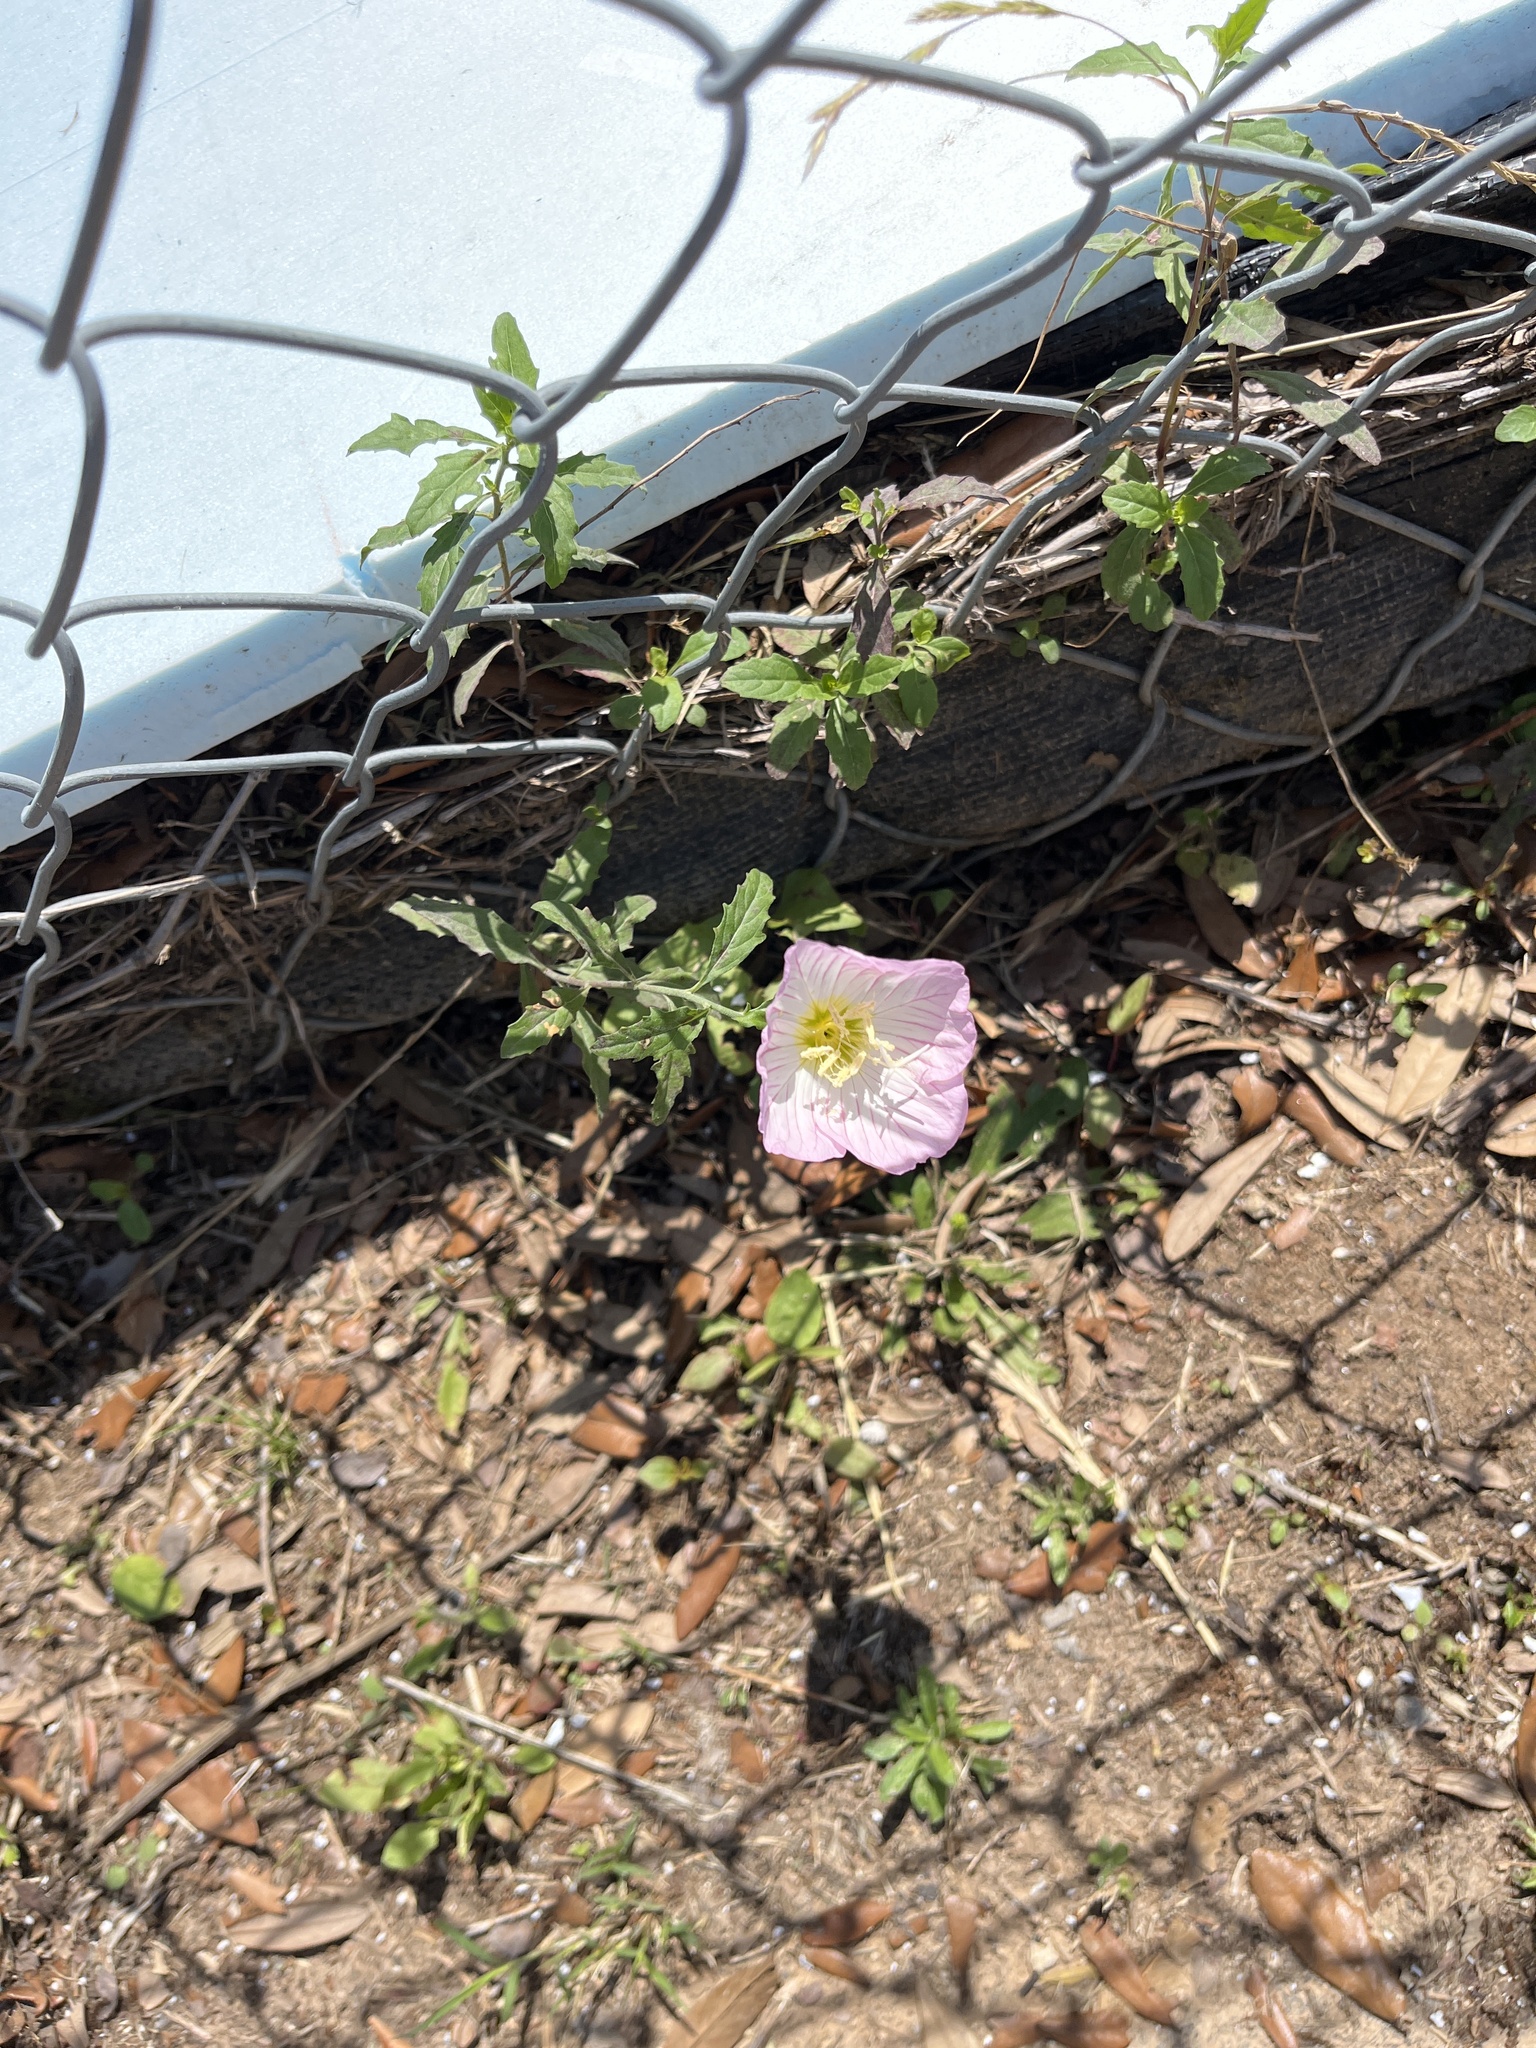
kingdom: Plantae
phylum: Tracheophyta
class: Magnoliopsida
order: Myrtales
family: Onagraceae
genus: Oenothera
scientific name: Oenothera speciosa
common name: White evening-primrose
